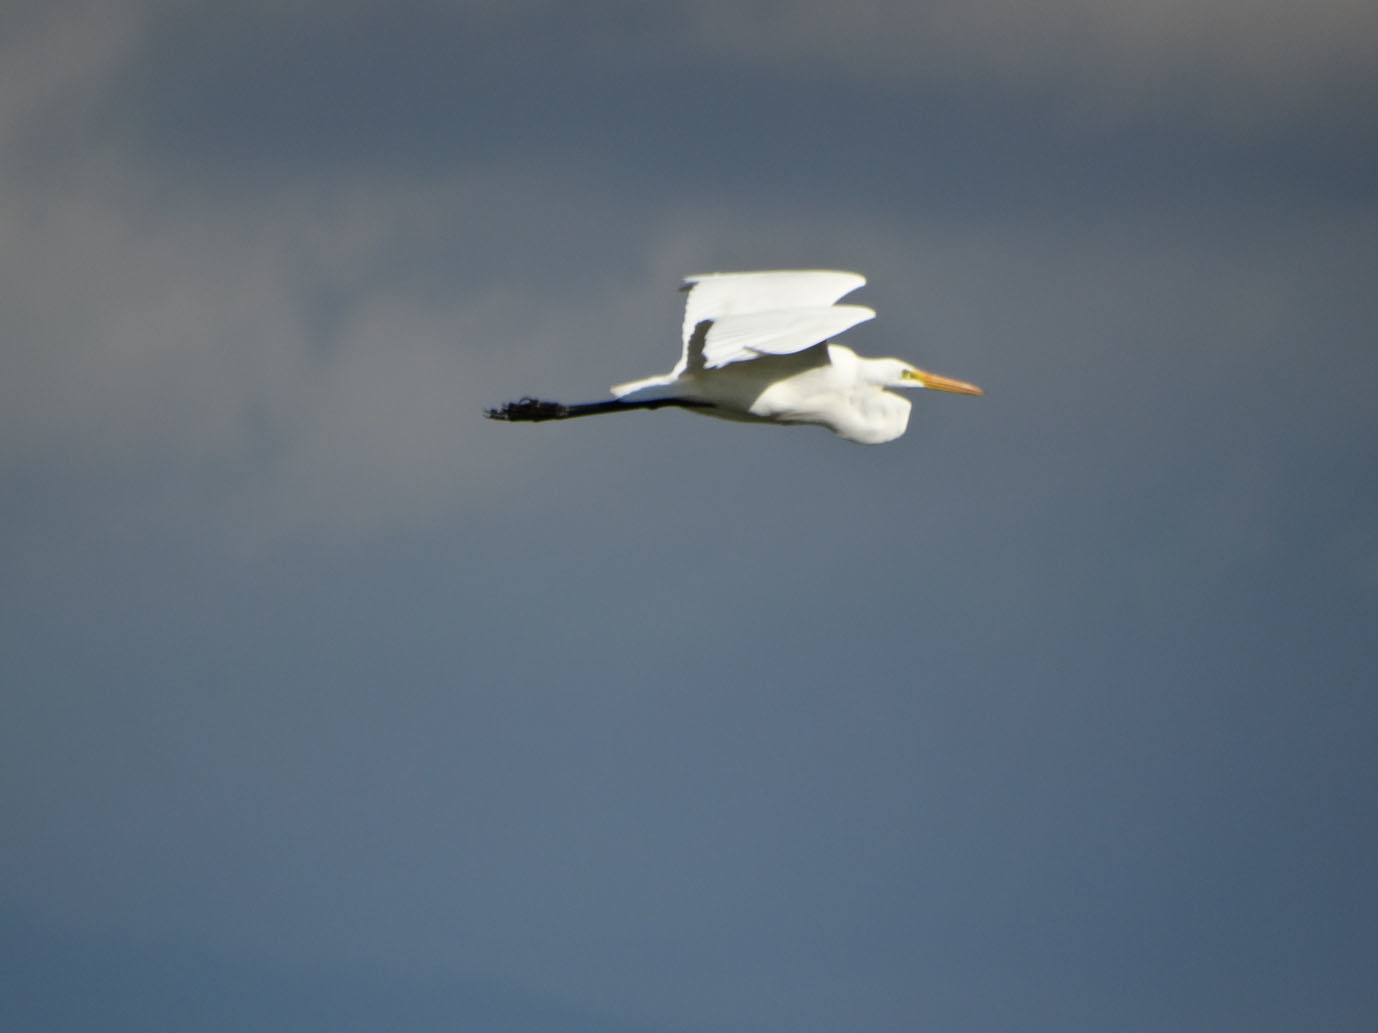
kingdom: Animalia
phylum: Chordata
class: Aves
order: Pelecaniformes
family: Ardeidae
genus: Ardea
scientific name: Ardea alba
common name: Great egret
